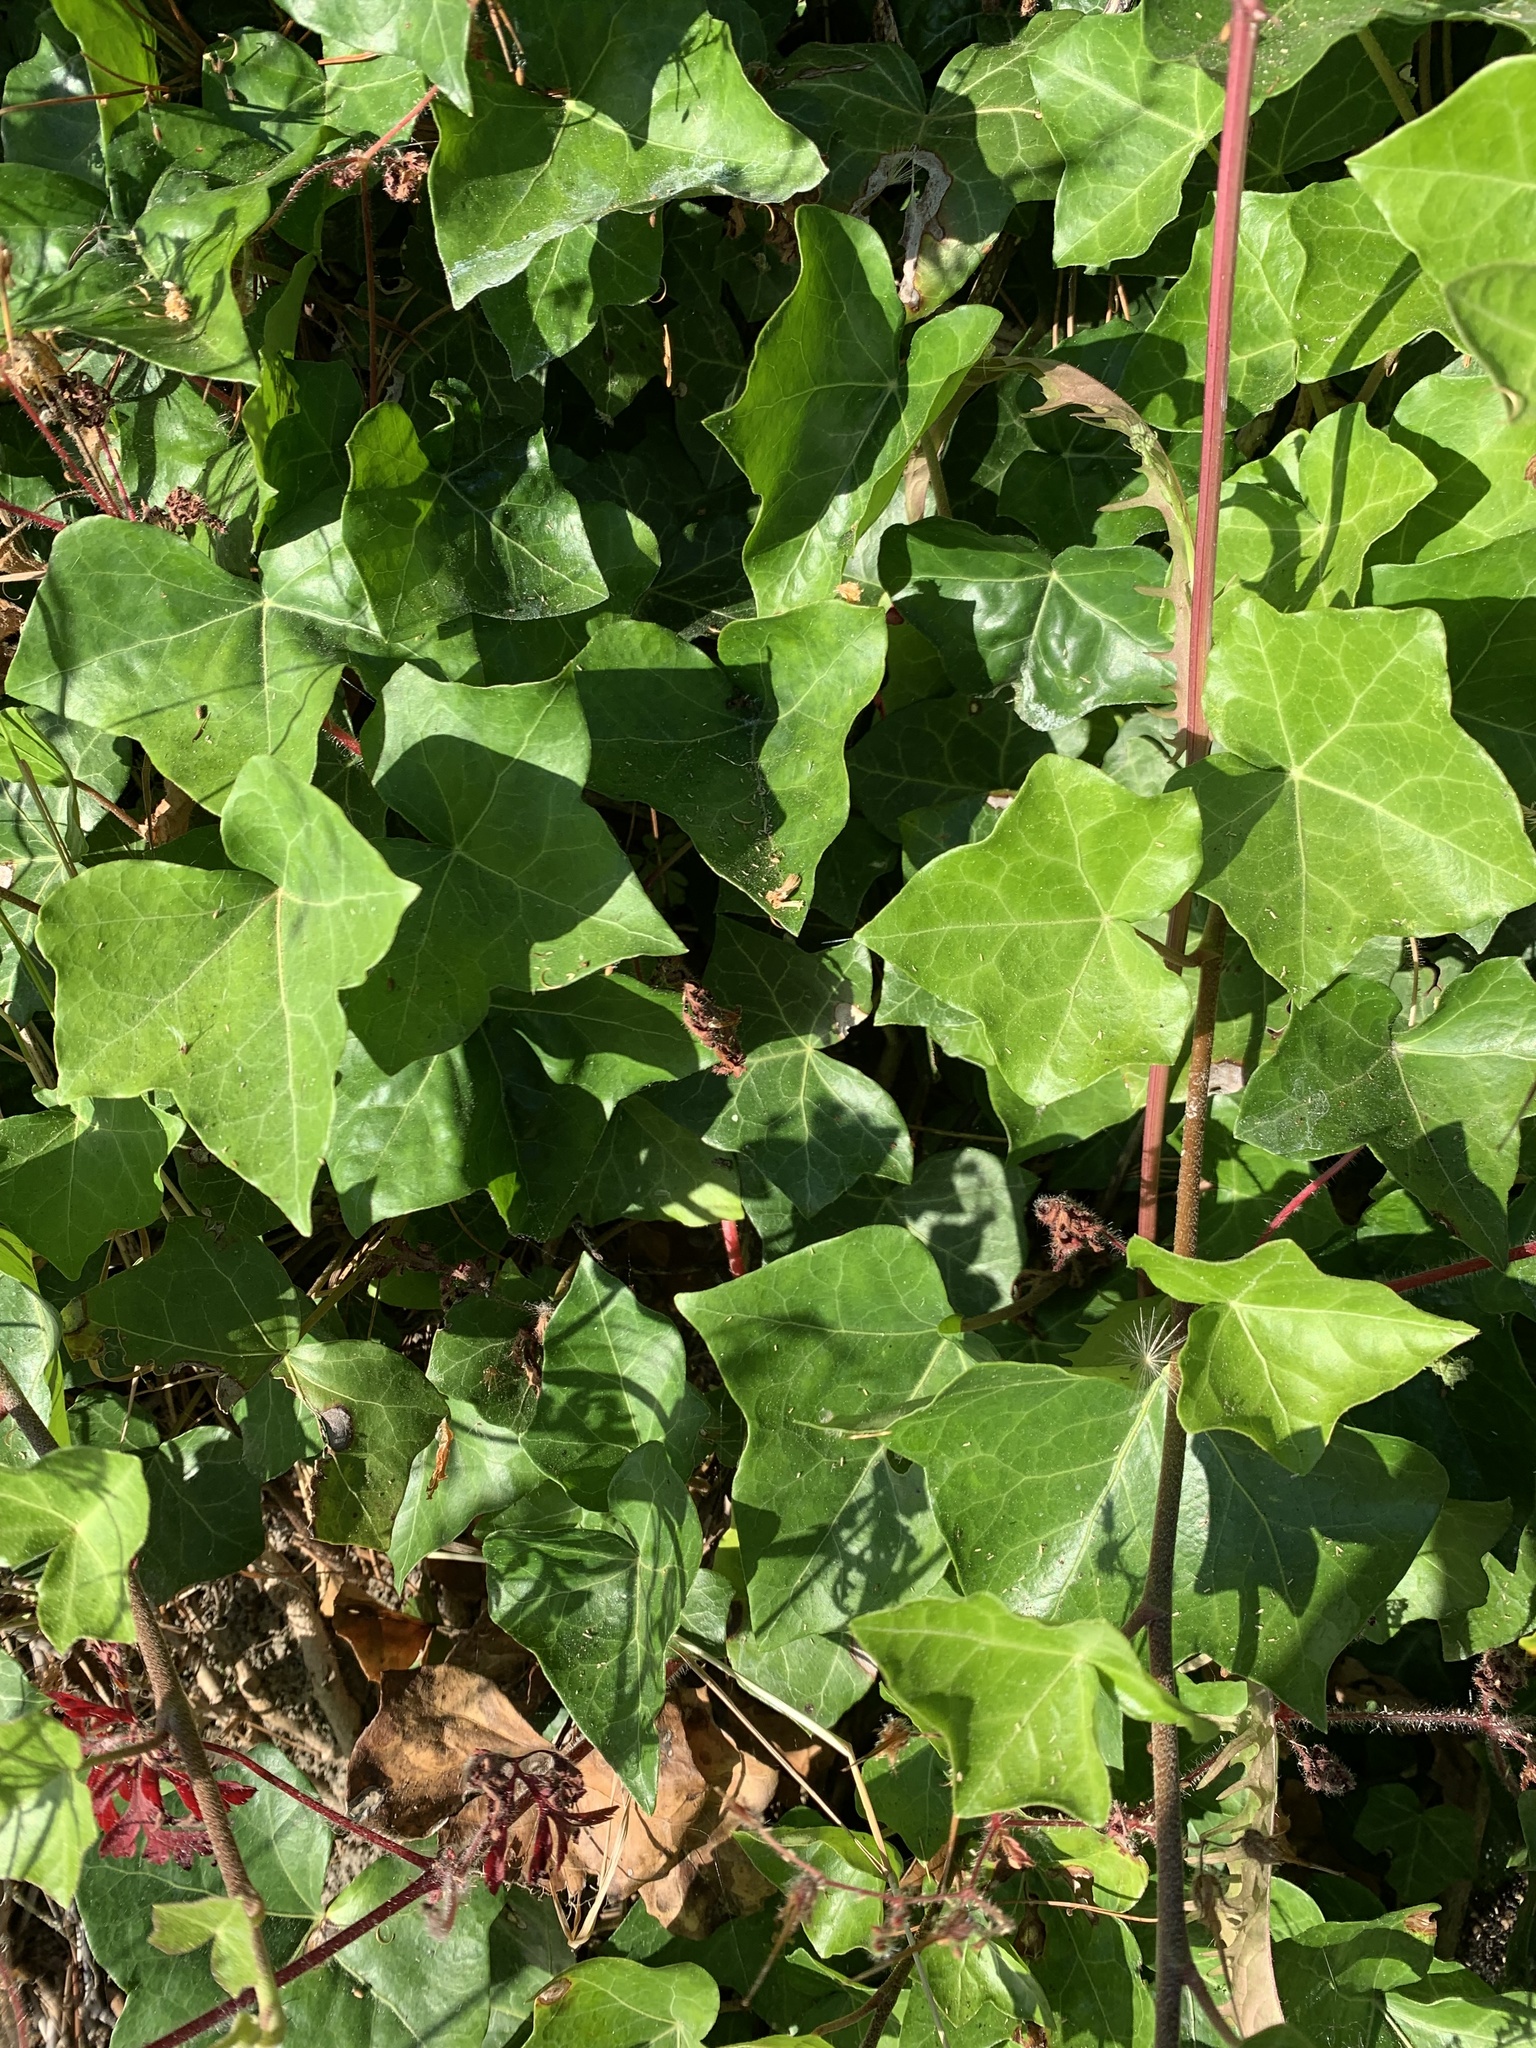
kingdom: Plantae
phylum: Tracheophyta
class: Magnoliopsida
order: Apiales
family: Araliaceae
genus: Hedera
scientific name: Hedera hibernica
